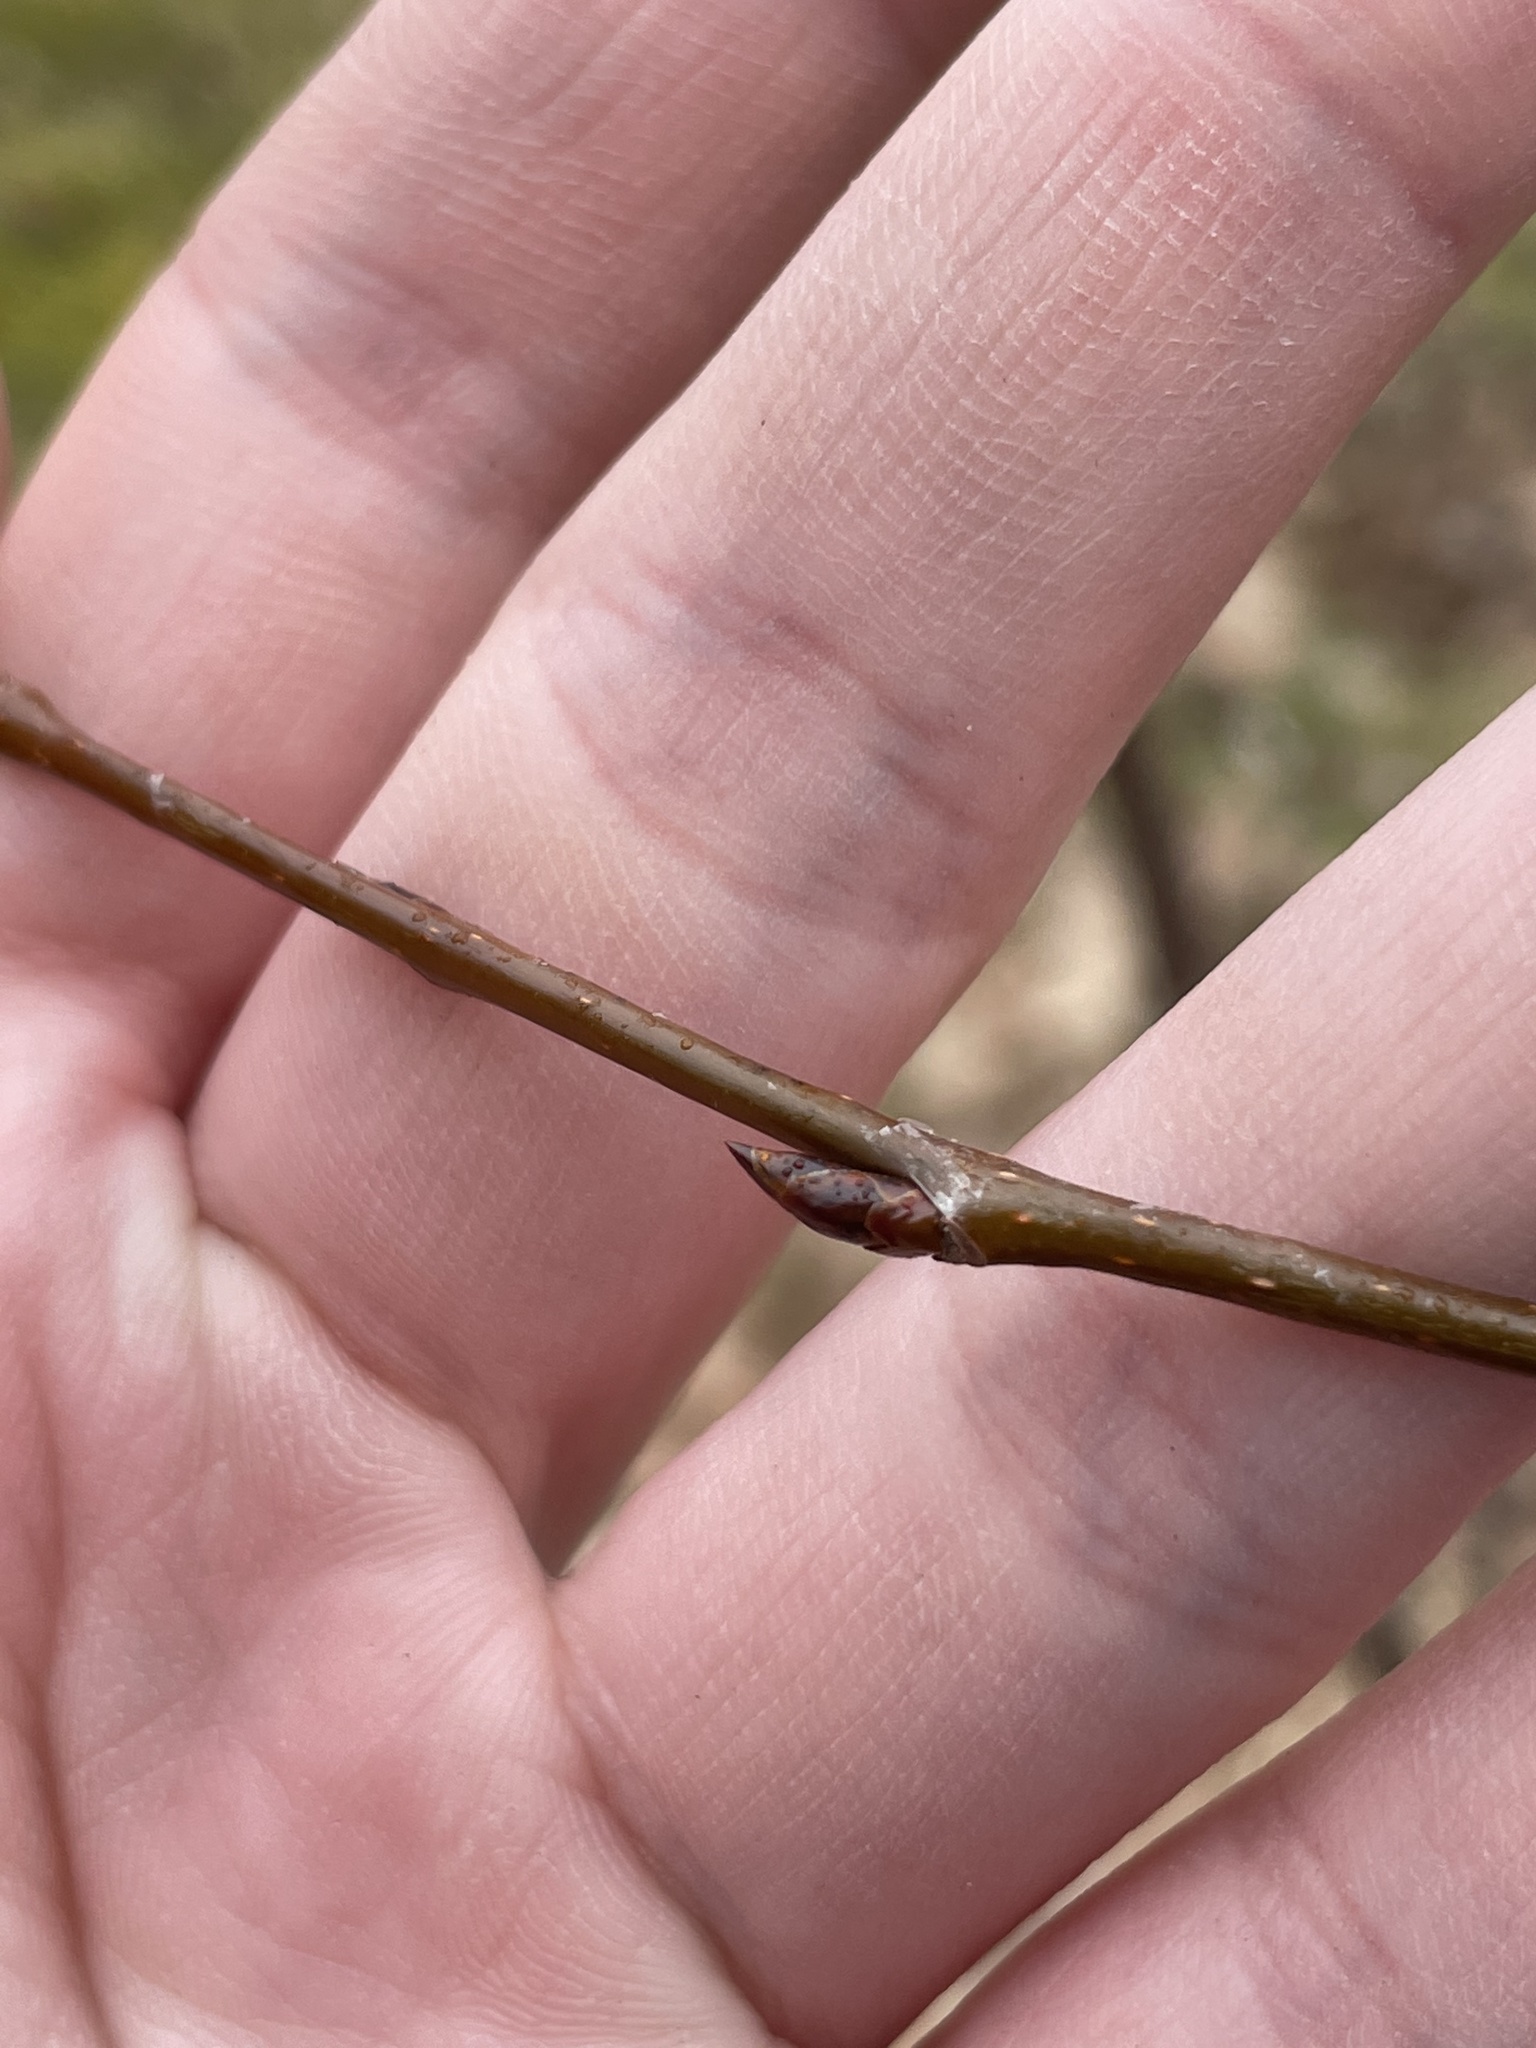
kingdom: Plantae
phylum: Tracheophyta
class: Magnoliopsida
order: Sapindales
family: Anacardiaceae
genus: Rhus
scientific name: Rhus typhina
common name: Staghorn sumac
